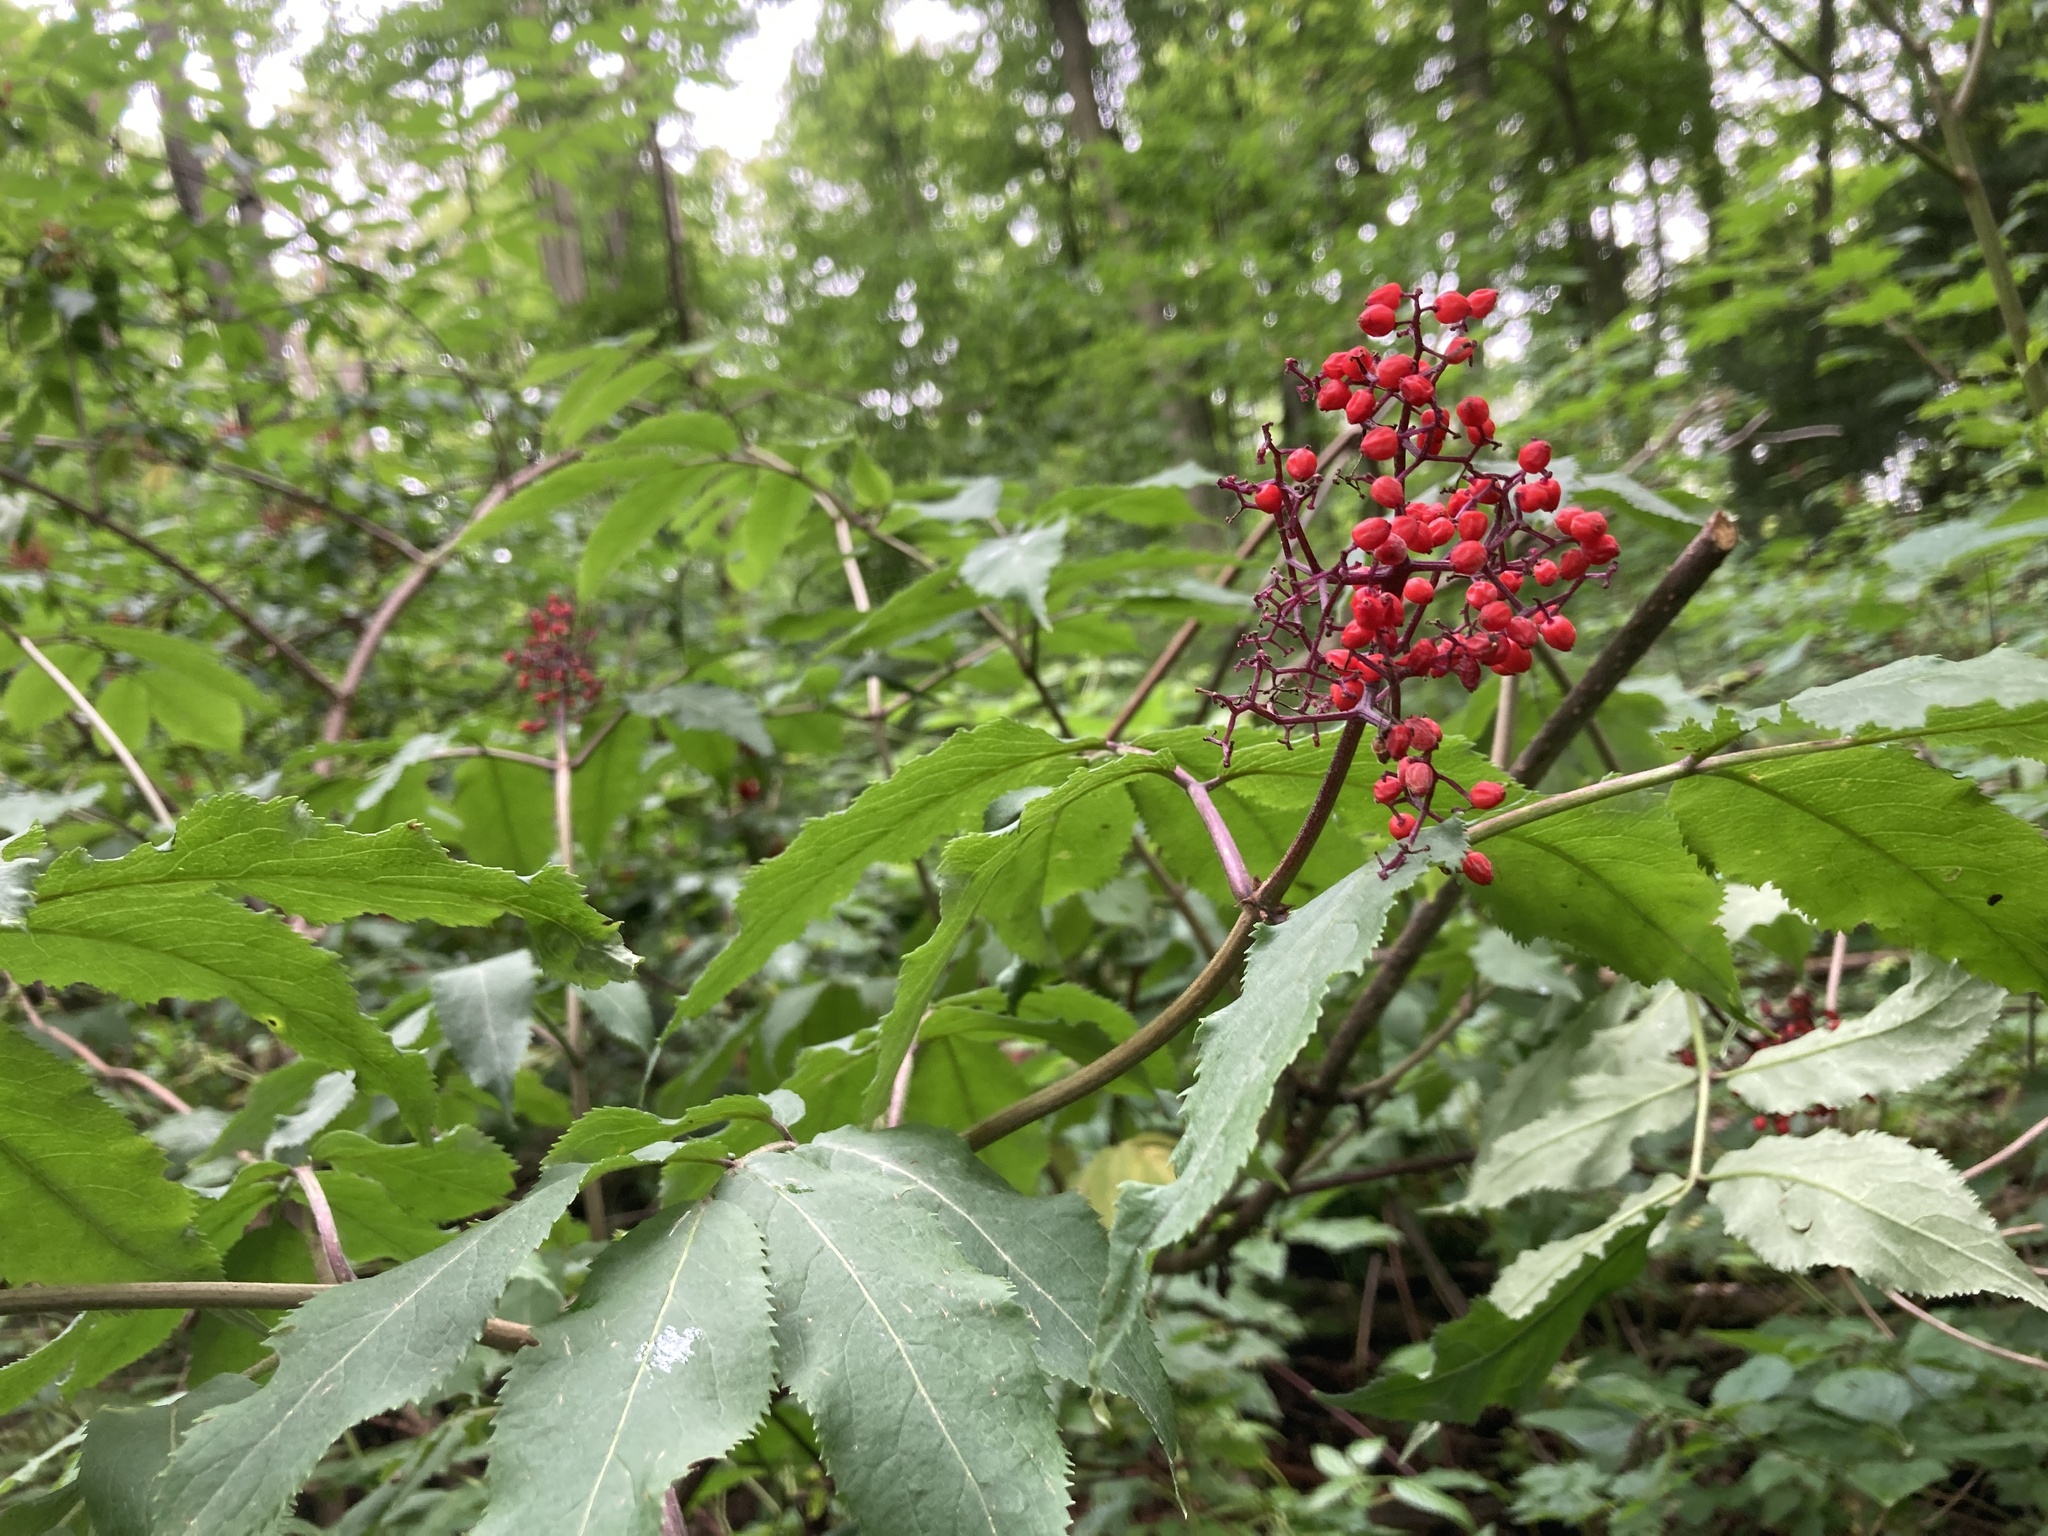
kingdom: Plantae
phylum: Tracheophyta
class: Magnoliopsida
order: Dipsacales
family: Viburnaceae
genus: Sambucus
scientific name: Sambucus racemosa
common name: Red-berried elder
